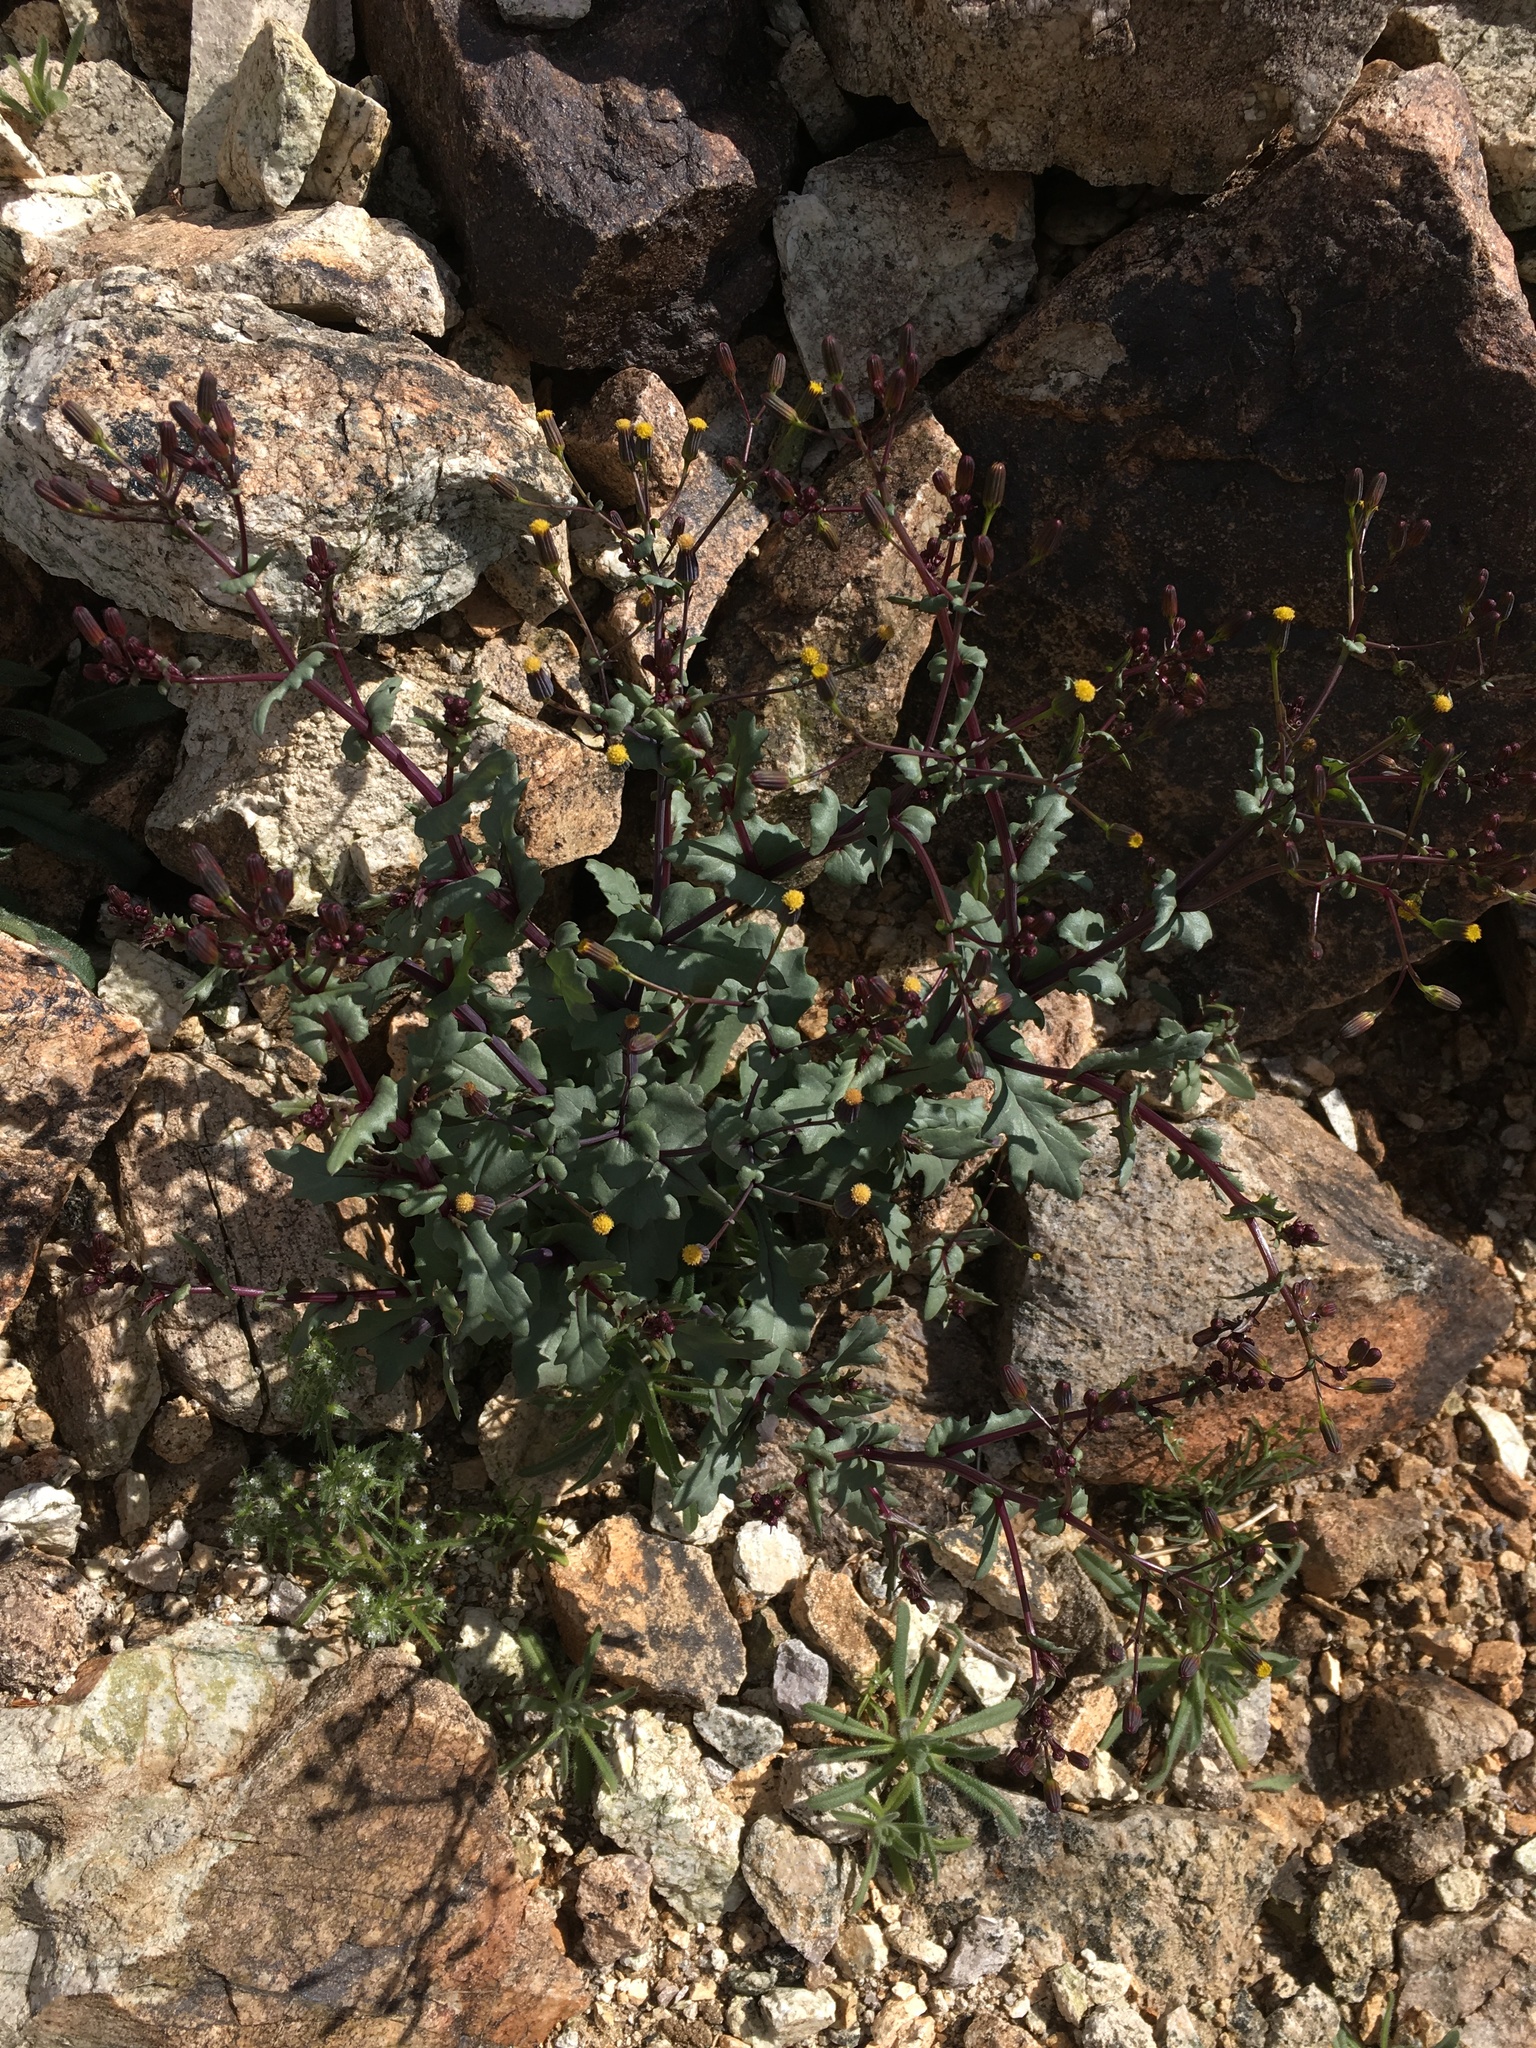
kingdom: Plantae
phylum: Tracheophyta
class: Magnoliopsida
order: Asterales
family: Asteraceae
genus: Senecio
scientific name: Senecio mohavensis
